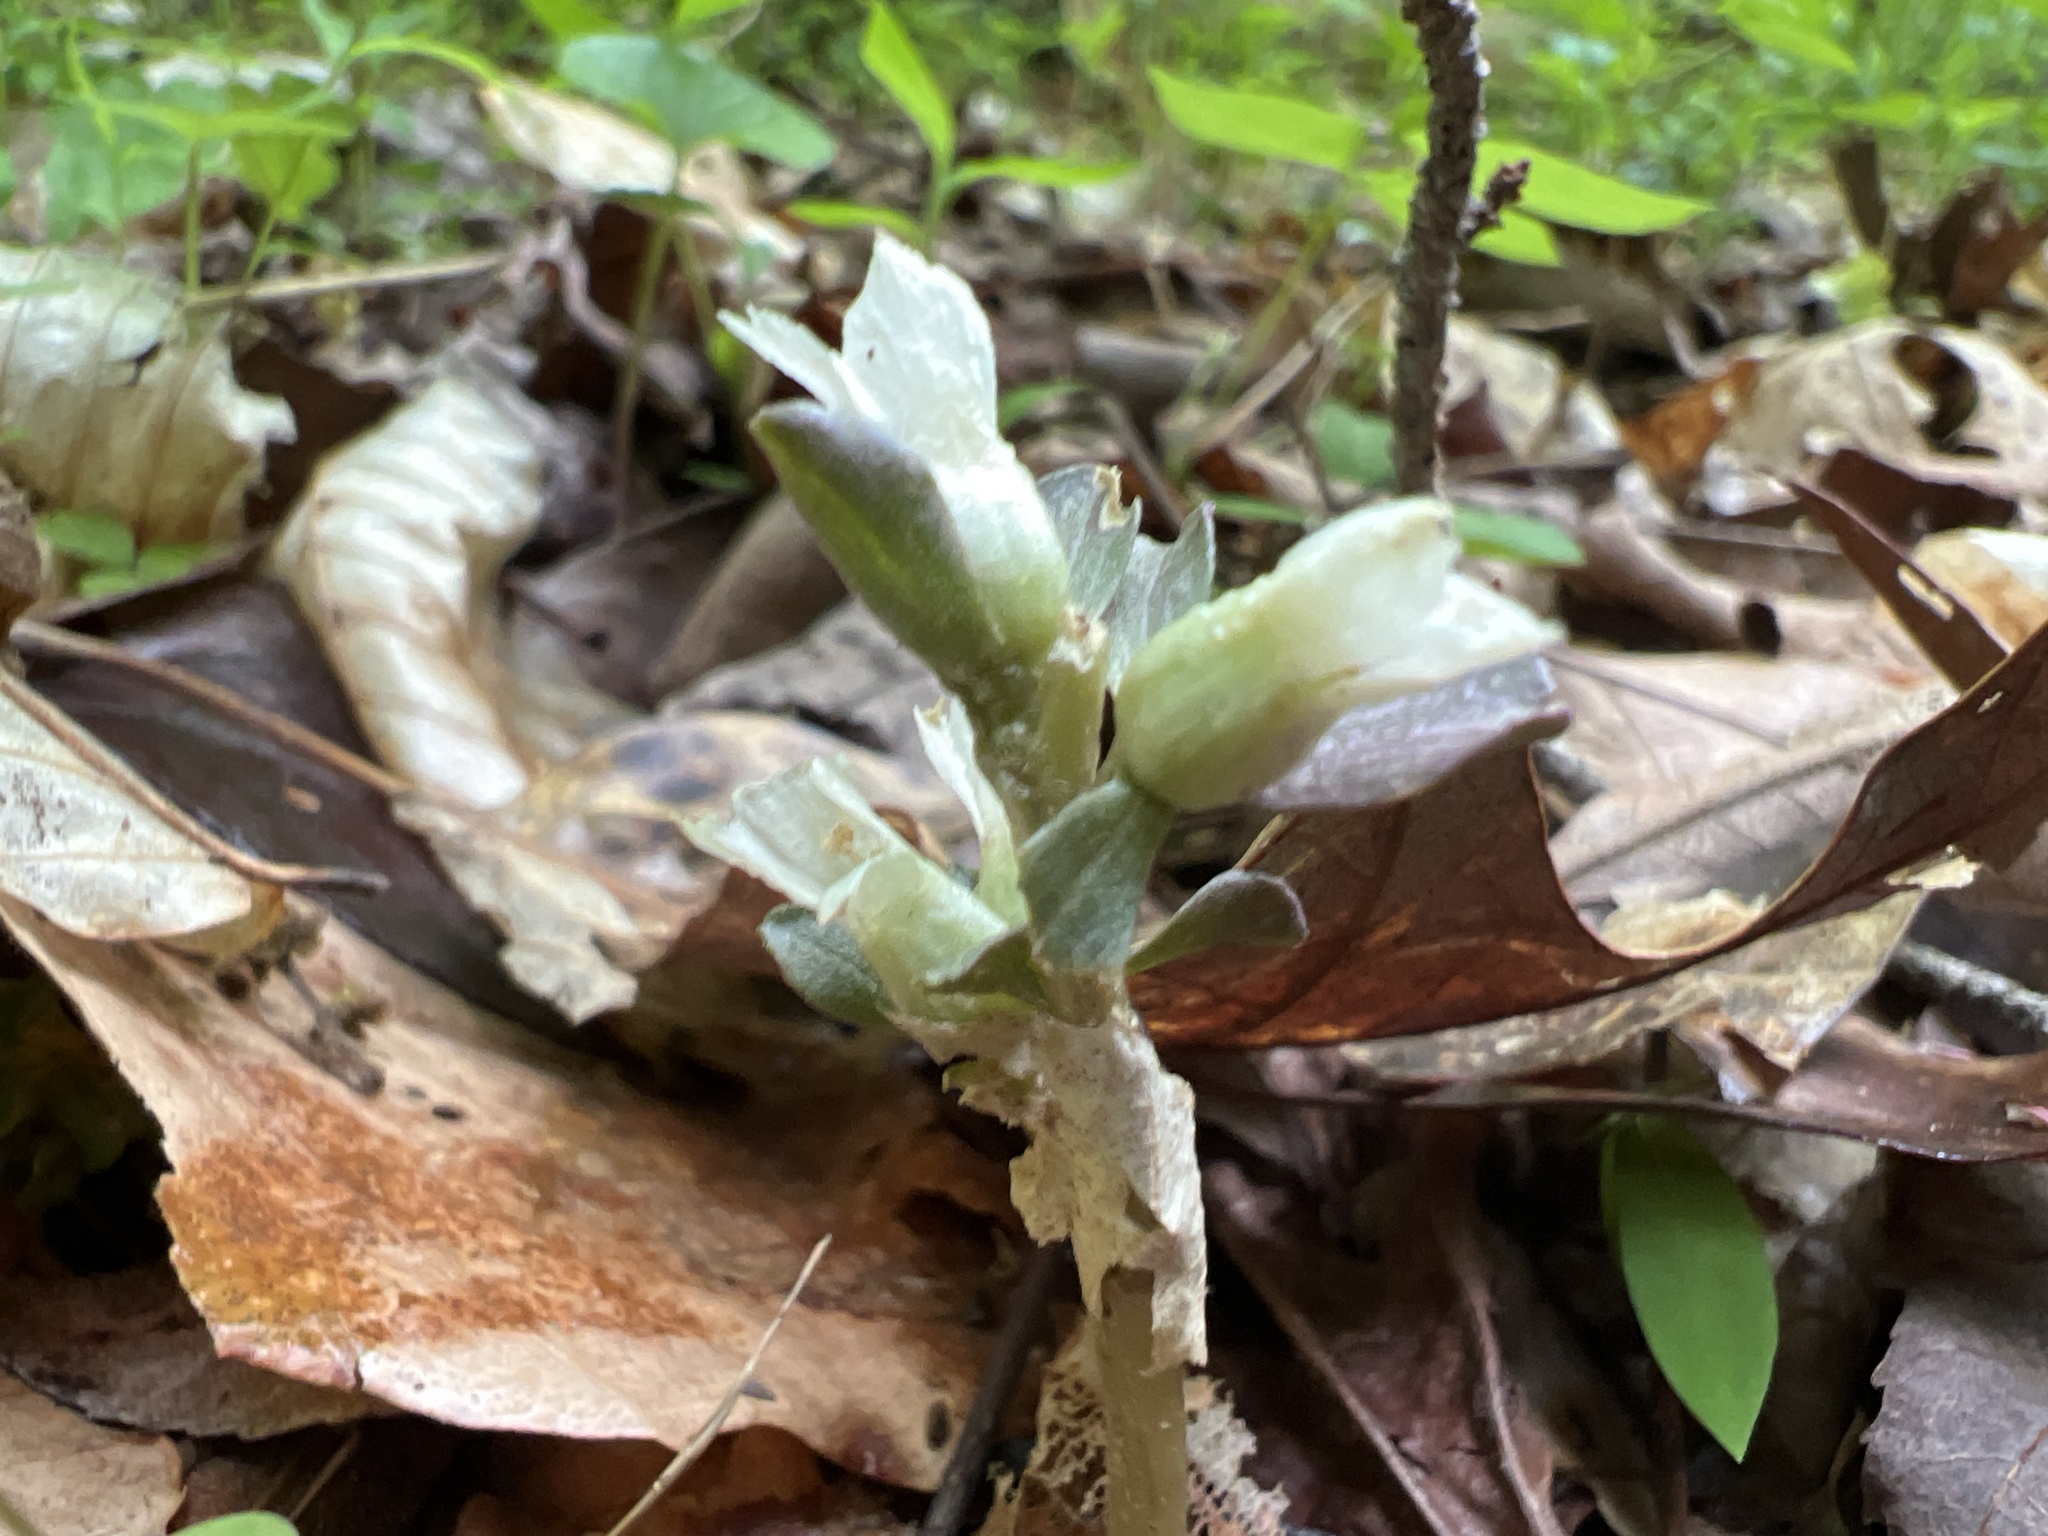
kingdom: Plantae
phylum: Tracheophyta
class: Magnoliopsida
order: Gentianales
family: Gentianaceae
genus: Obolaria
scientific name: Obolaria virginica
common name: Pennywort
